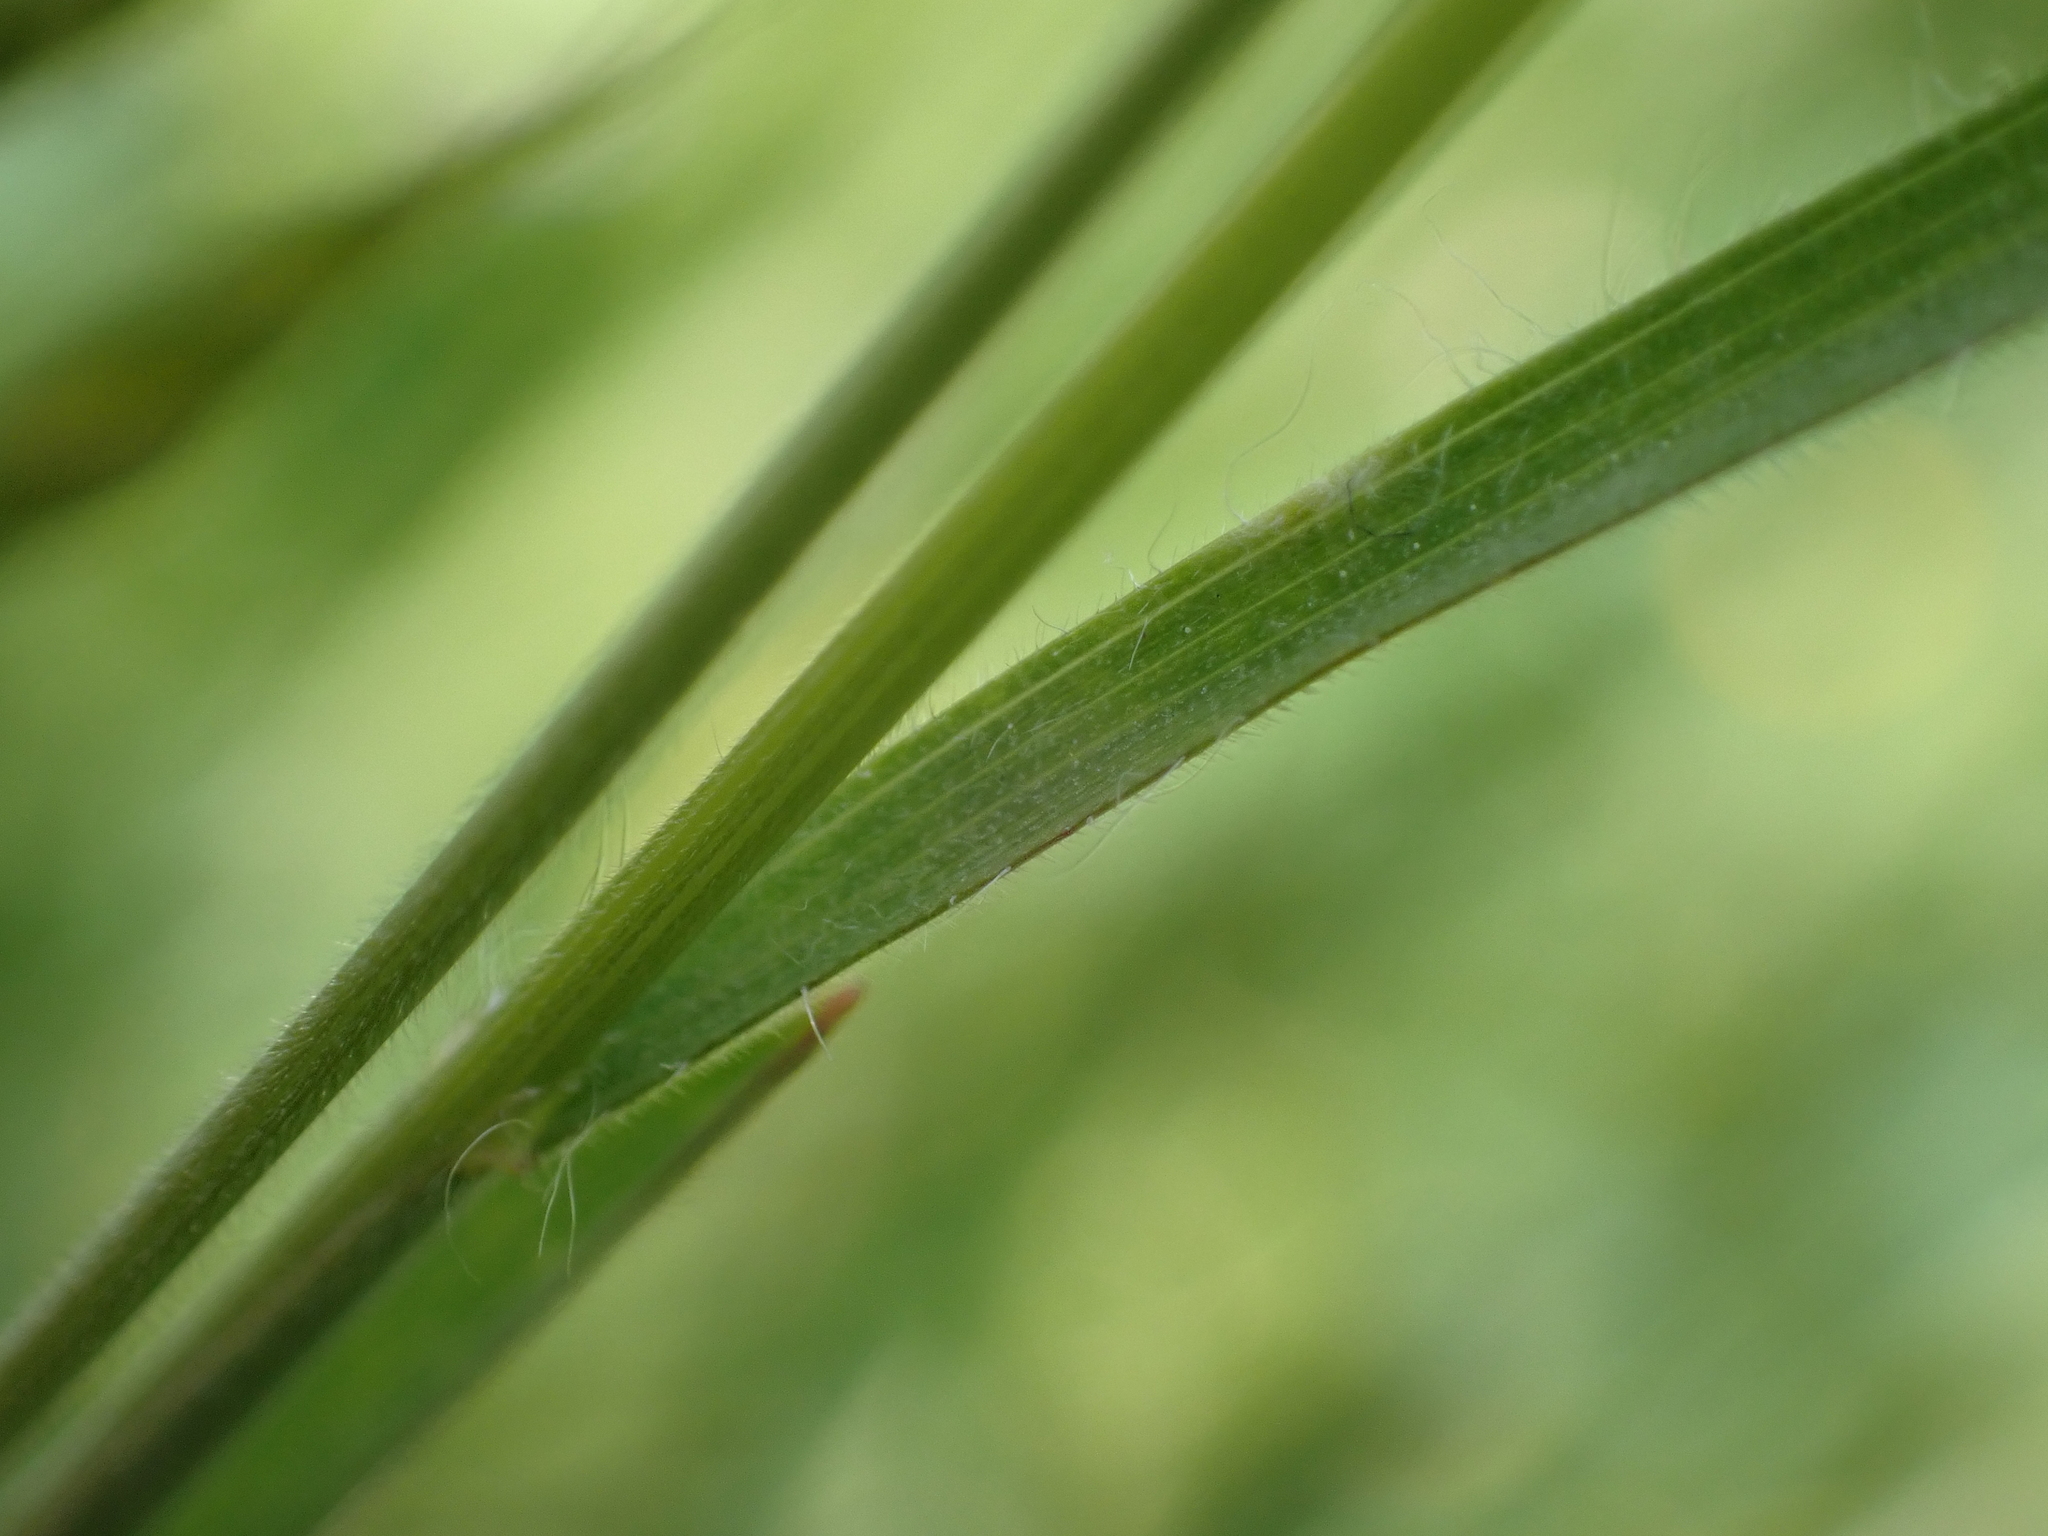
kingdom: Plantae
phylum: Tracheophyta
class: Liliopsida
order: Poales
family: Poaceae
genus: Bromus
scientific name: Bromus hordeaceus
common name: Soft brome
